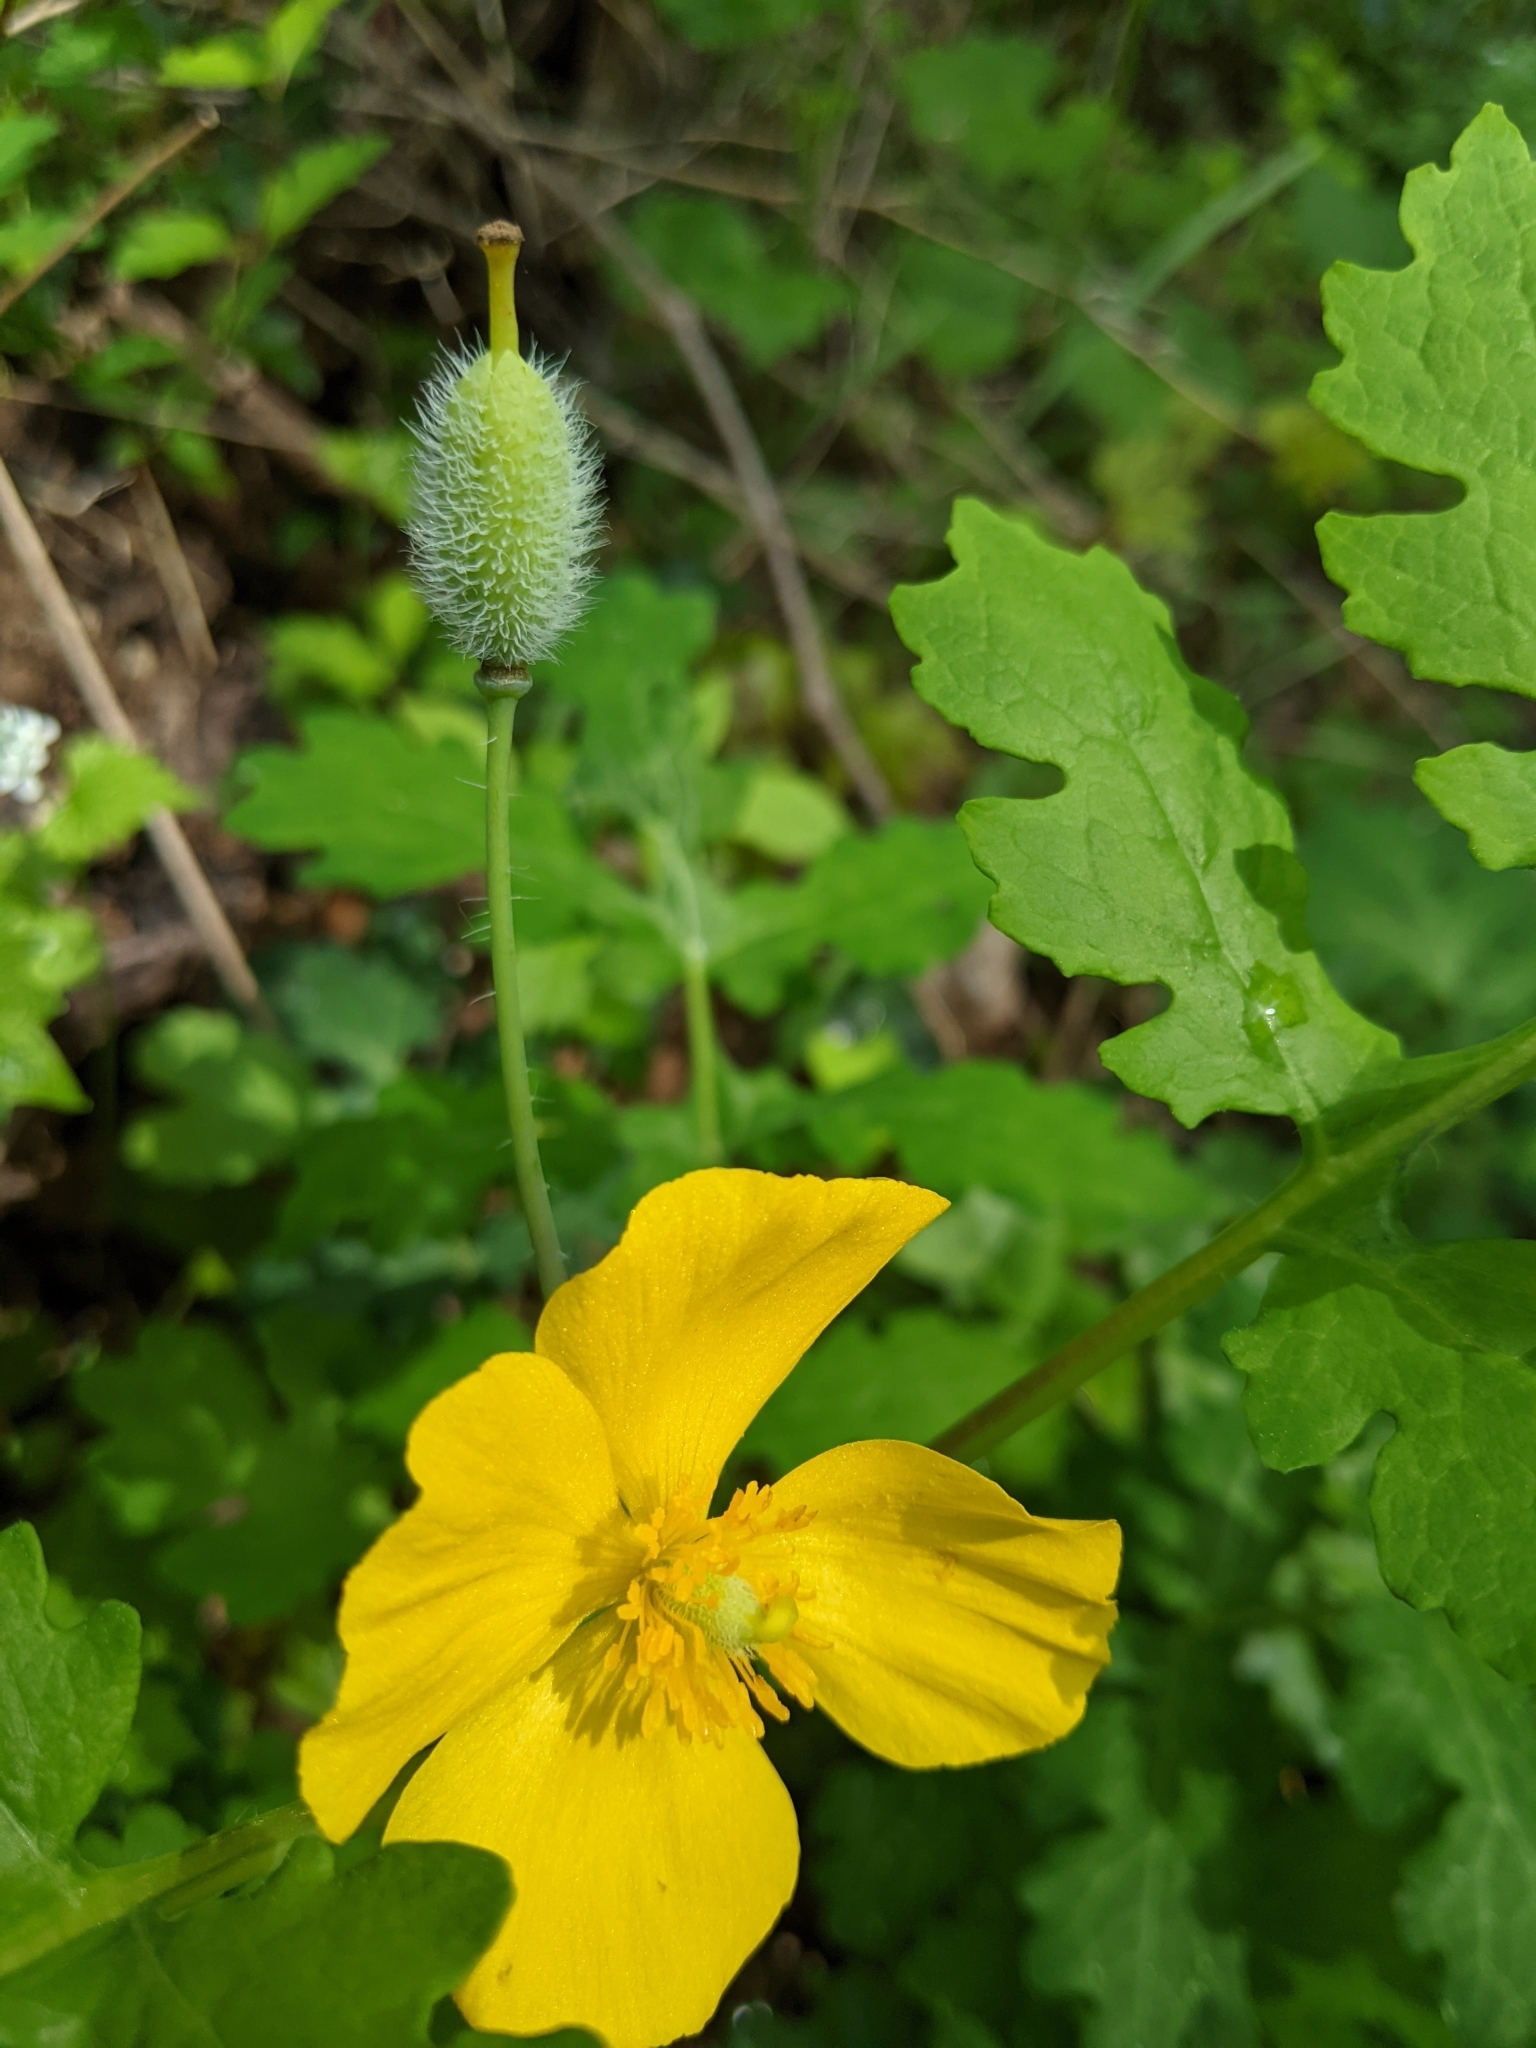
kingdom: Plantae
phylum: Tracheophyta
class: Magnoliopsida
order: Ranunculales
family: Papaveraceae
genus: Stylophorum
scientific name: Stylophorum diphyllum
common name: Celandine poppy
